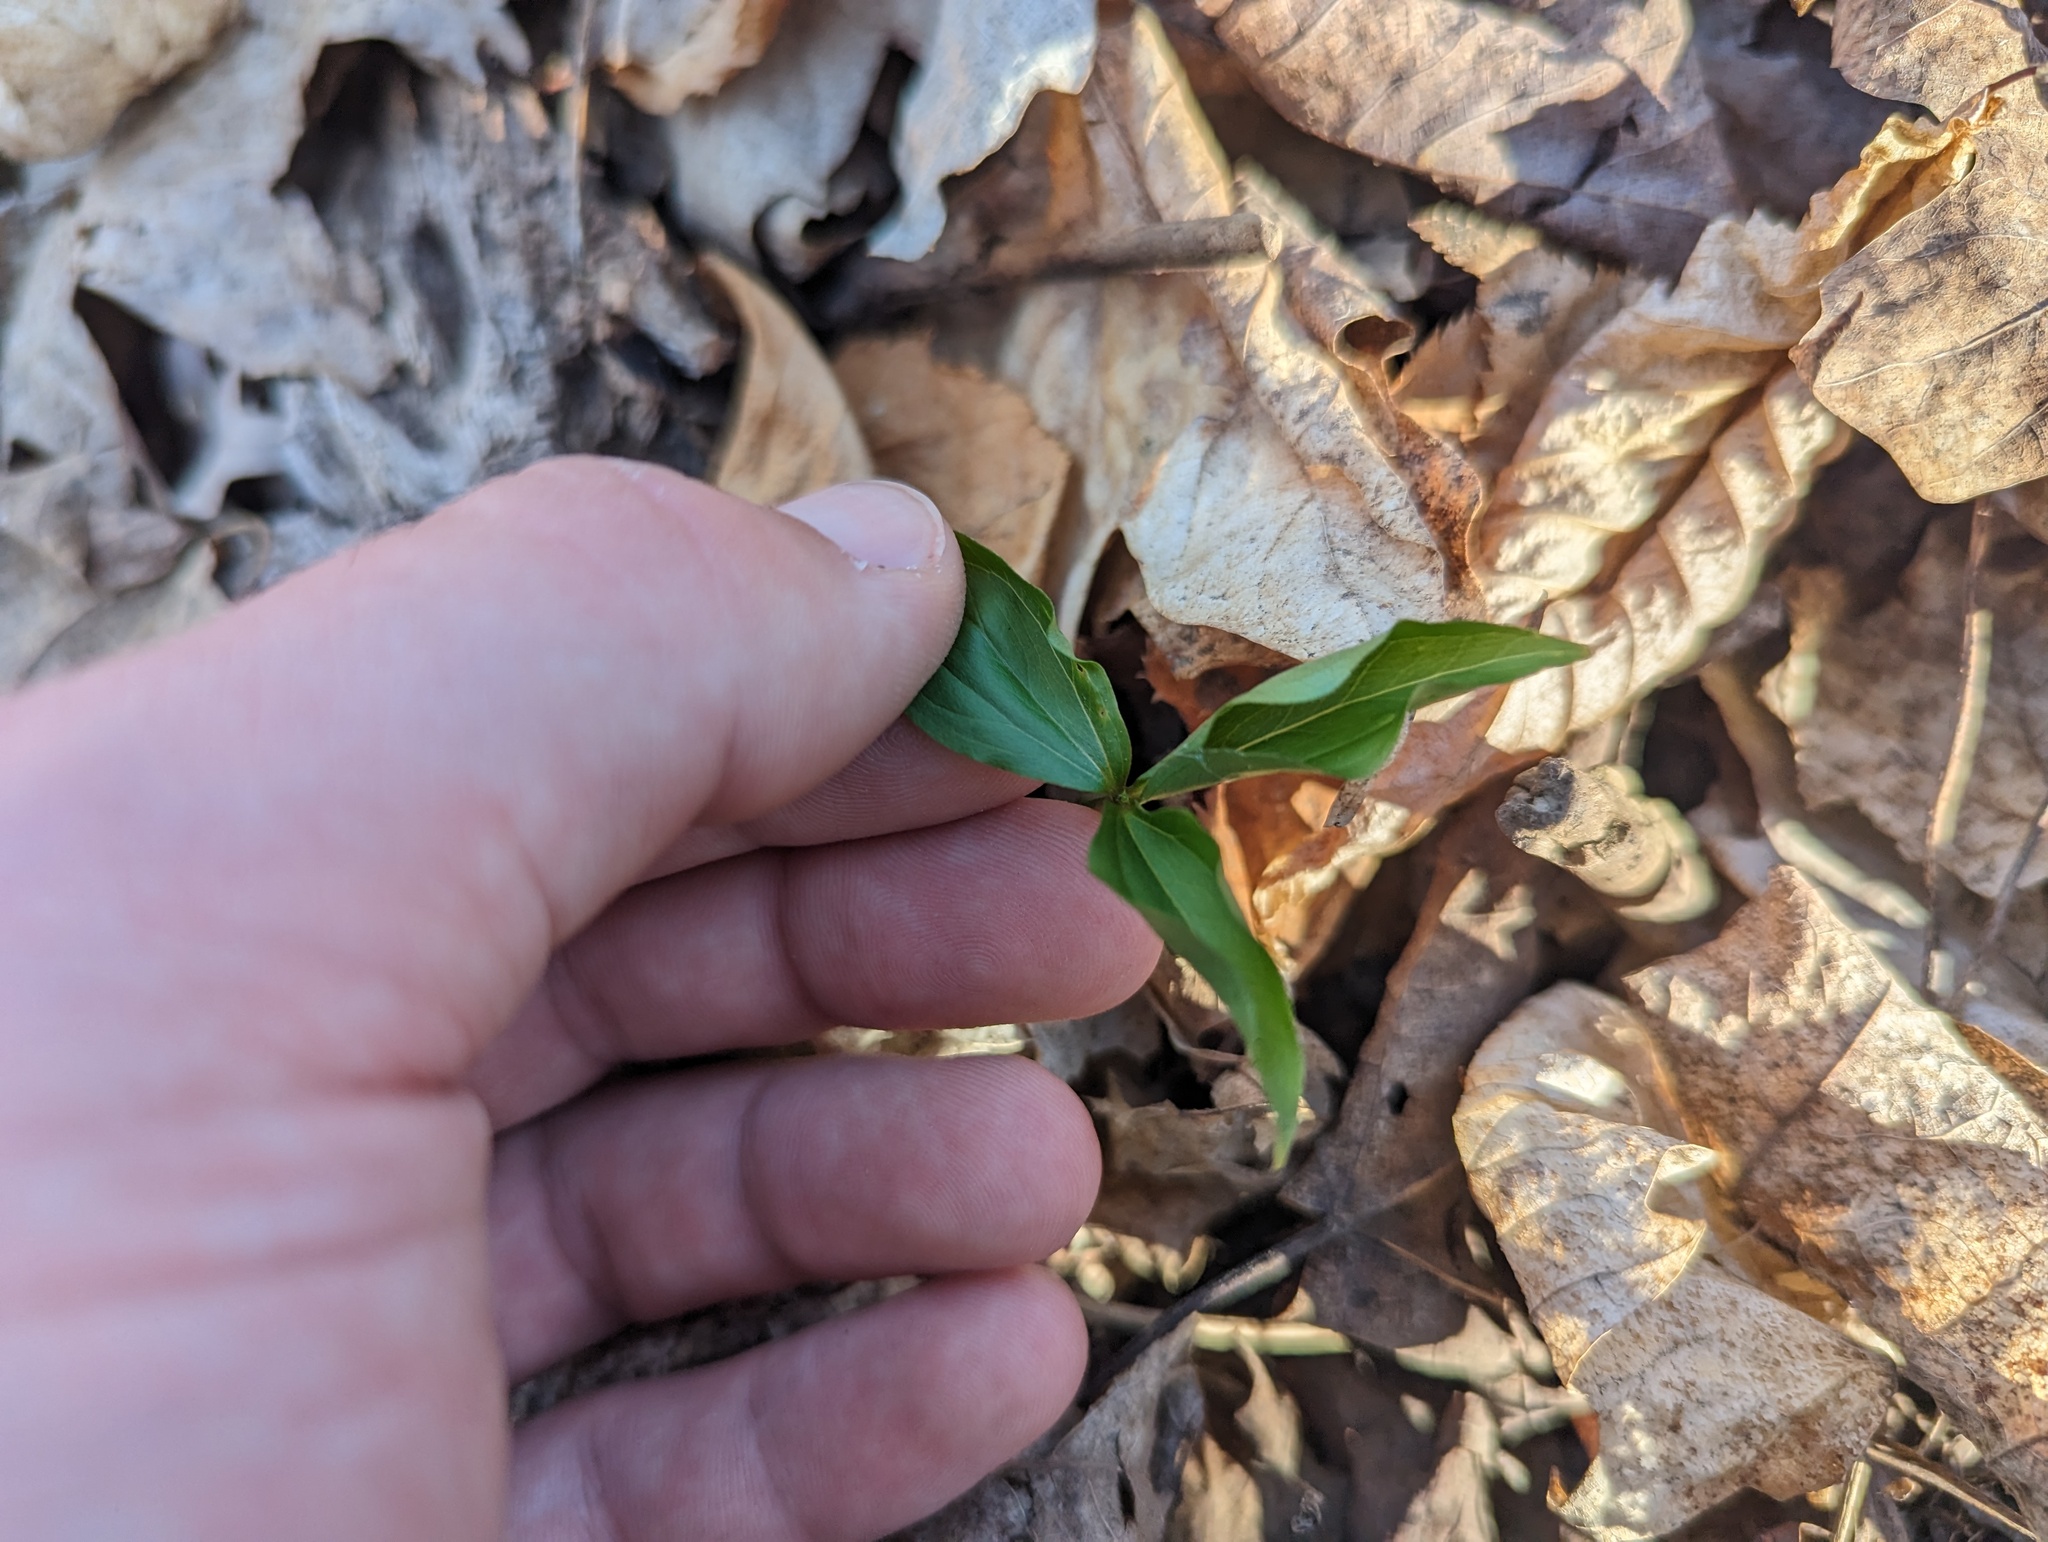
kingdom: Plantae
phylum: Tracheophyta
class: Liliopsida
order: Liliales
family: Melanthiaceae
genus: Trillium
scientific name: Trillium grandiflorum
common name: Great white trillium
